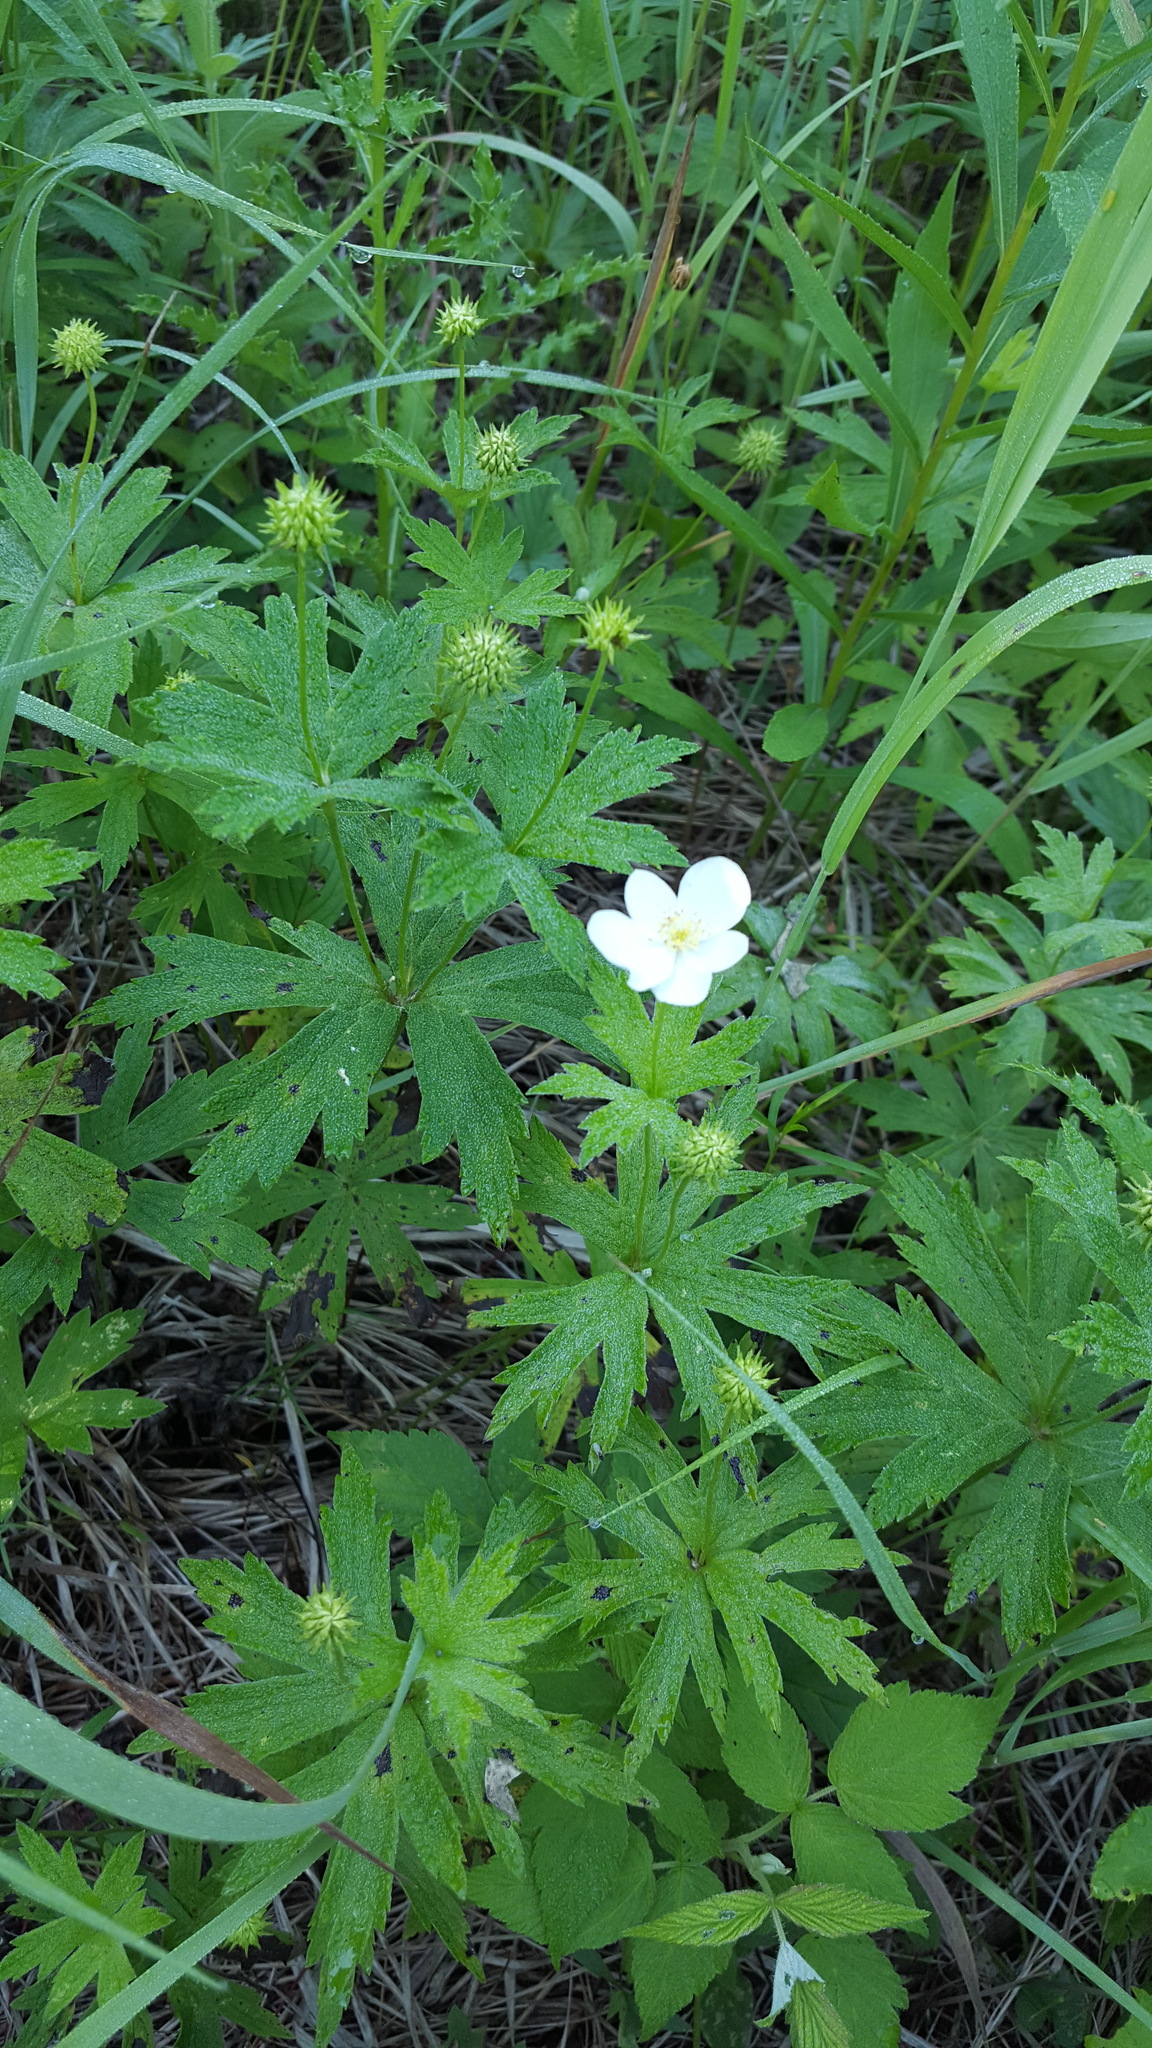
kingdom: Plantae
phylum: Tracheophyta
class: Magnoliopsida
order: Ranunculales
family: Ranunculaceae
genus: Anemonastrum
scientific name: Anemonastrum canadense
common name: Canada anemone
